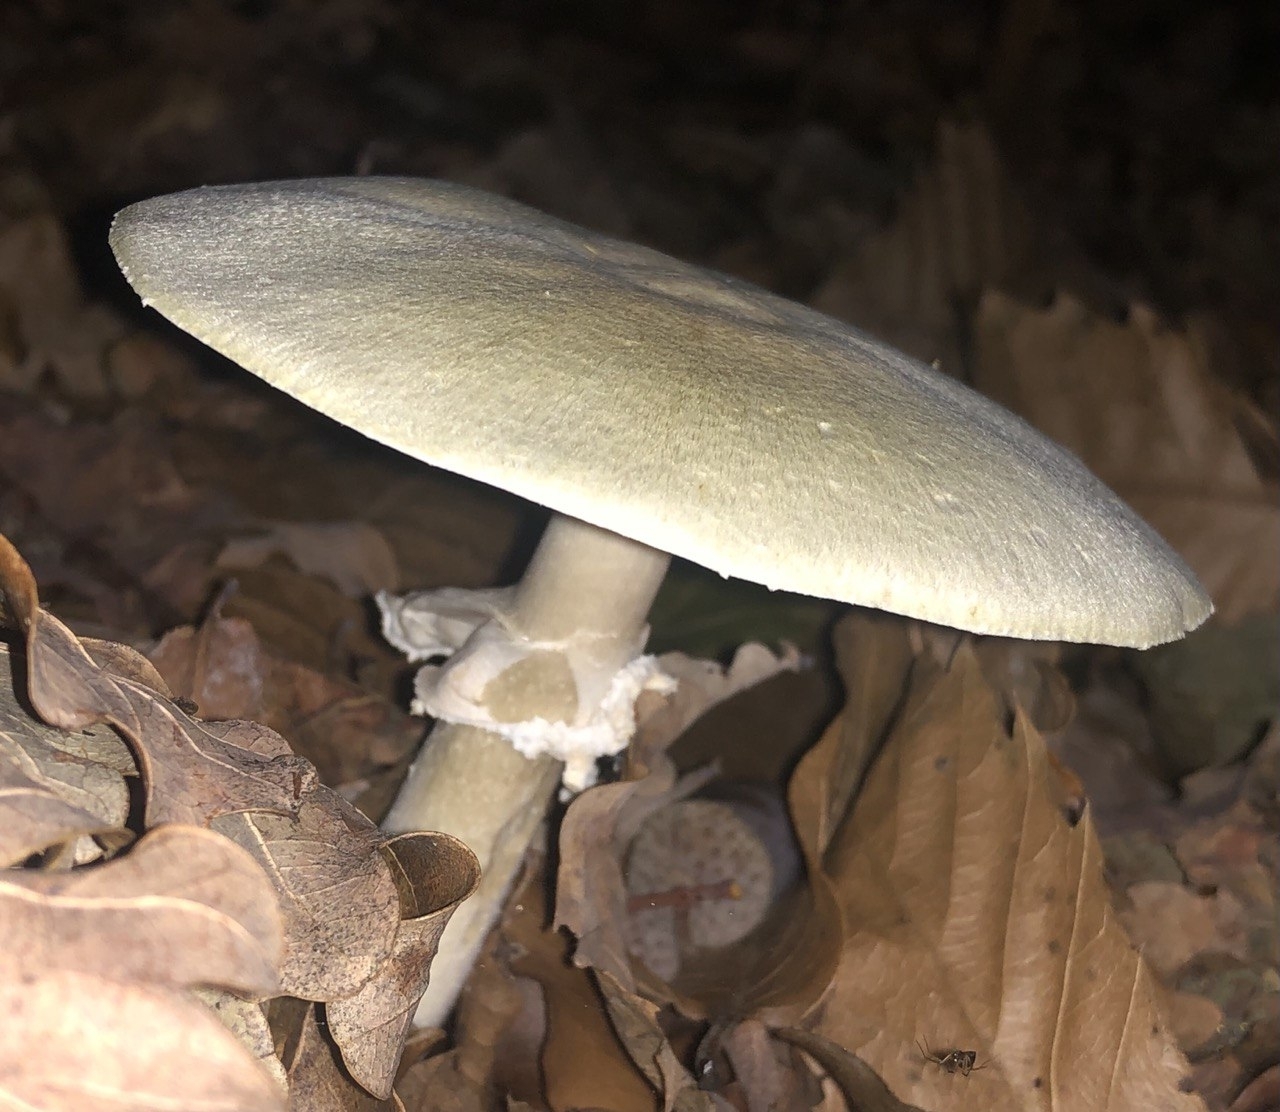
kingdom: Fungi
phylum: Basidiomycota
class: Agaricomycetes
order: Agaricales
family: Amanitaceae
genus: Amanita
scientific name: Amanita phalloides
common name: Death cap
